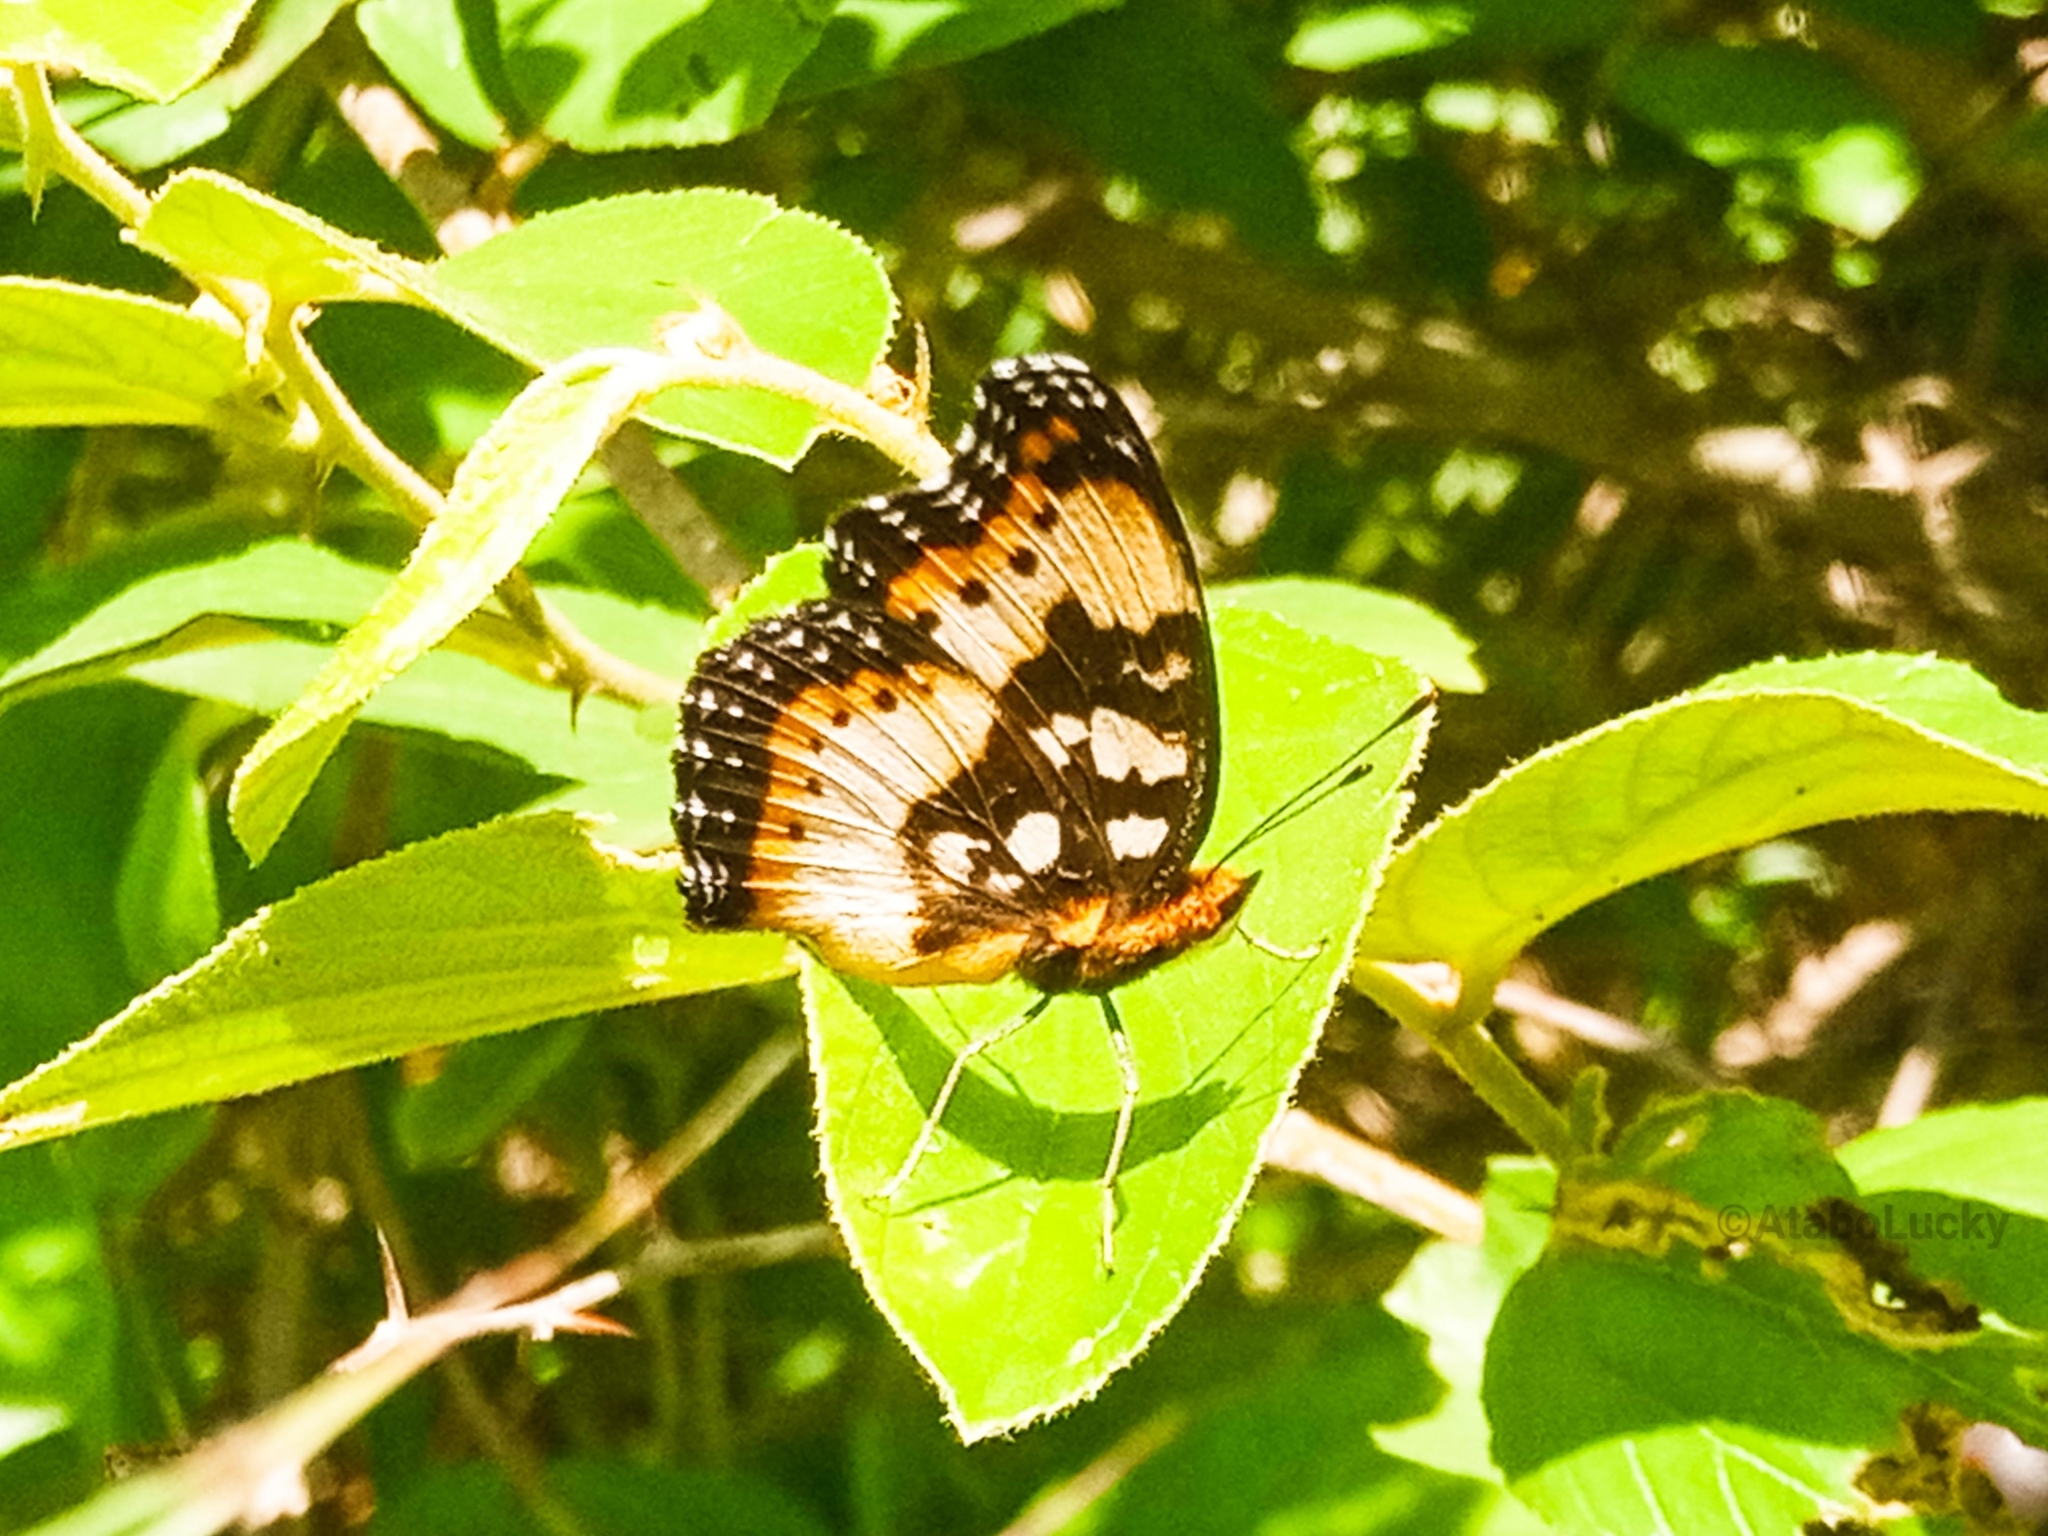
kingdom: Animalia
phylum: Arthropoda
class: Insecta
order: Lepidoptera
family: Nymphalidae
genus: Junonia
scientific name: Junonia antilope
